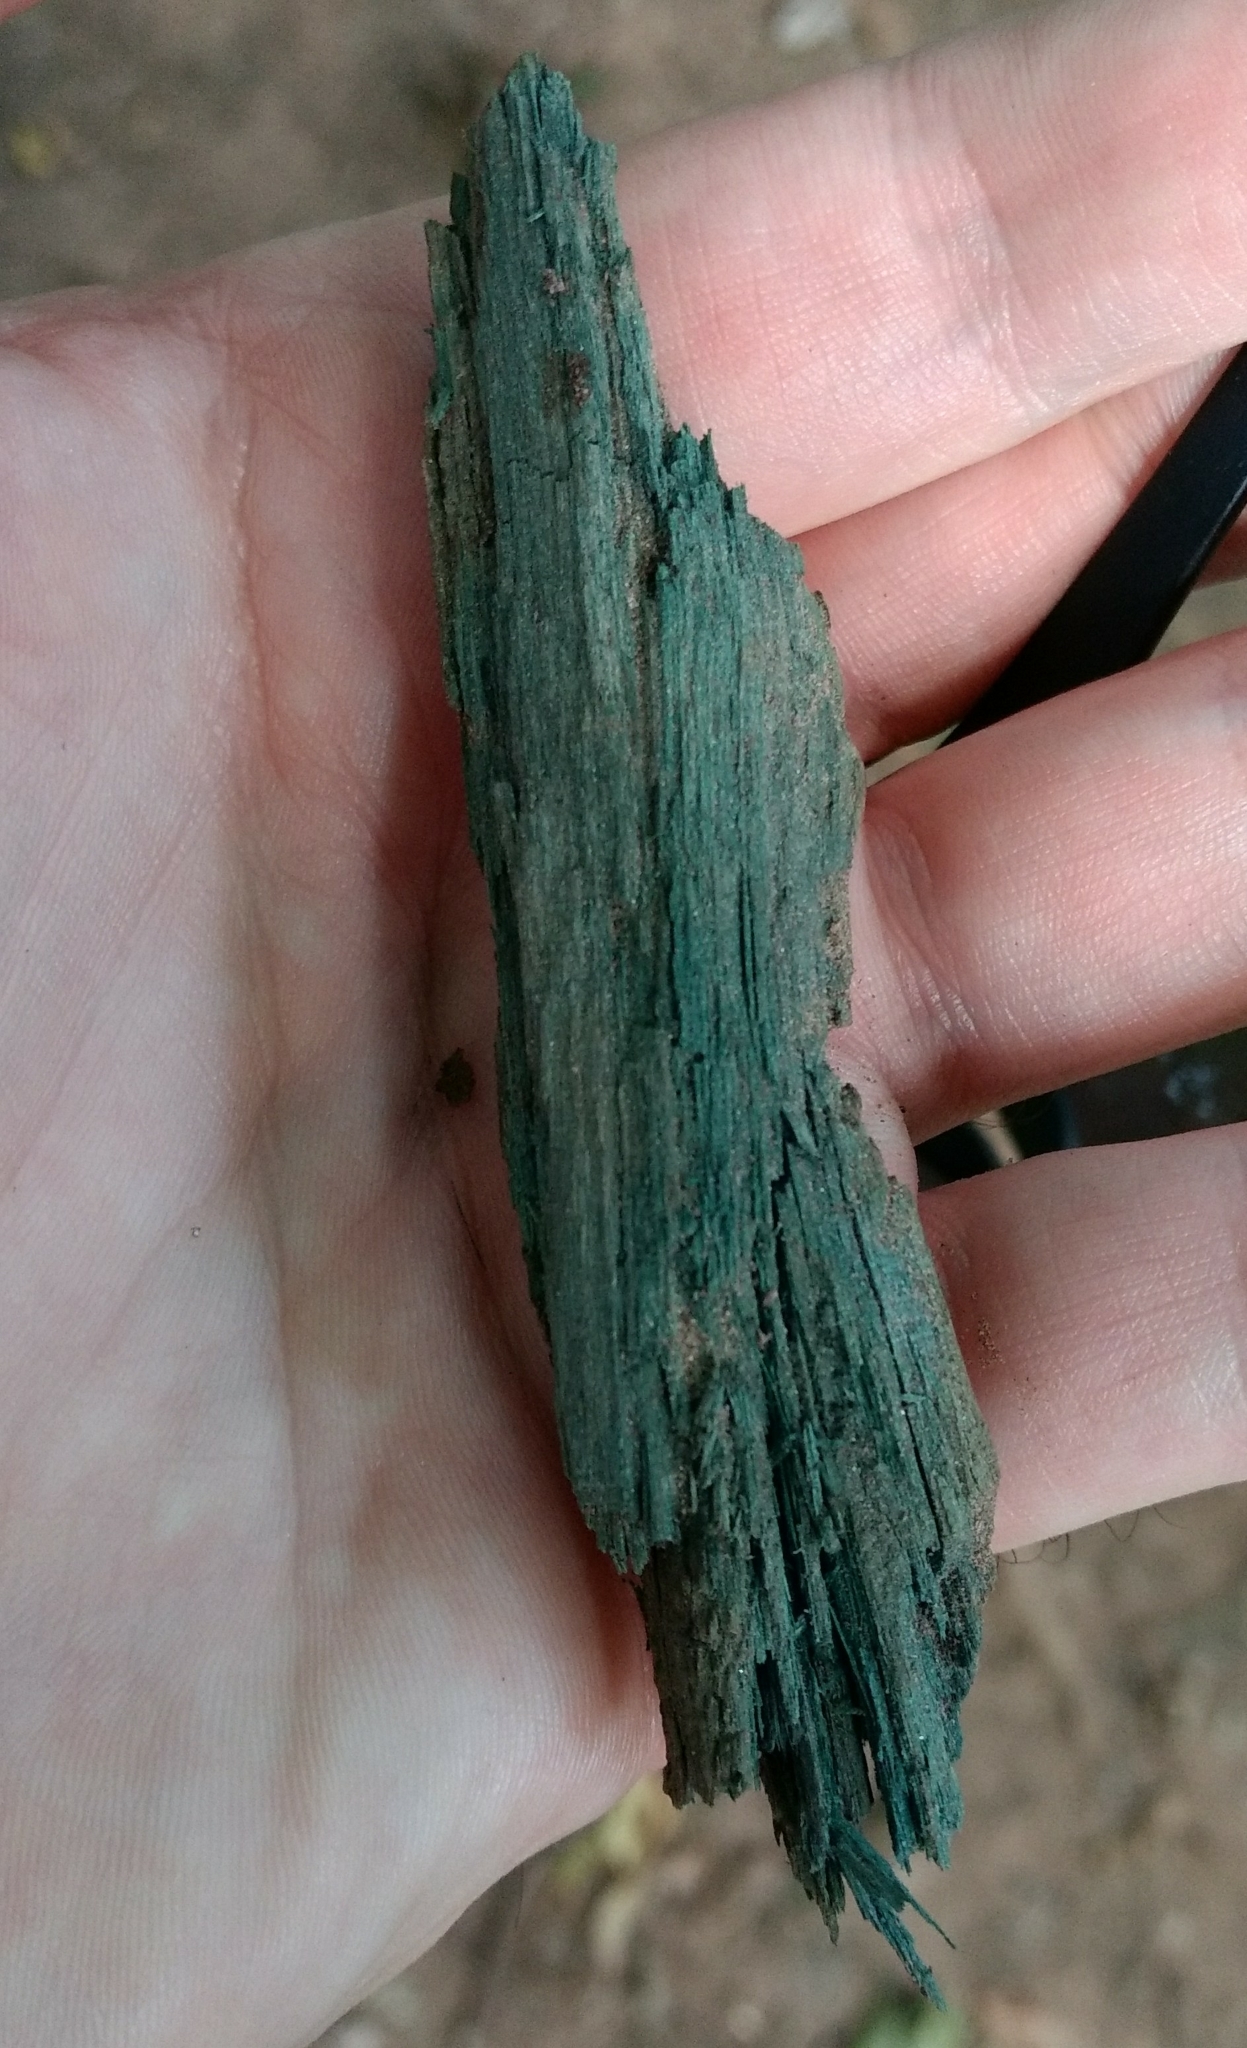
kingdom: Fungi
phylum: Ascomycota
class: Leotiomycetes
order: Helotiales
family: Chlorociboriaceae
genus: Chlorociboria
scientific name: Chlorociboria
